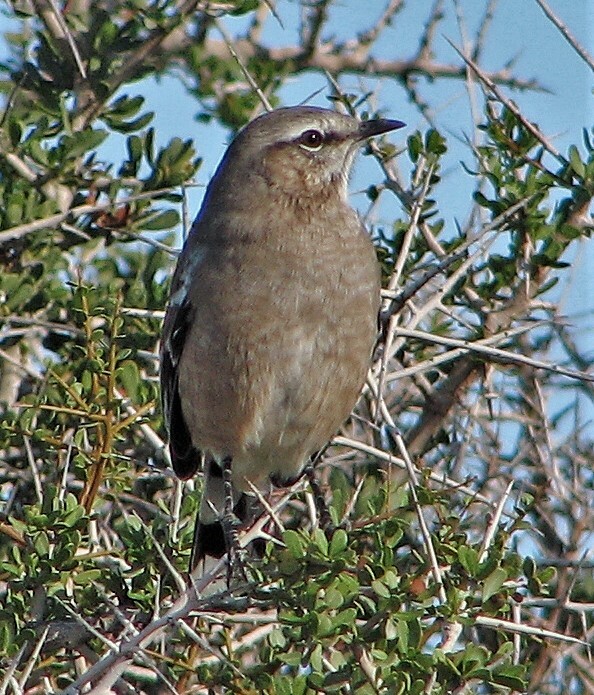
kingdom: Animalia
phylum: Chordata
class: Aves
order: Passeriformes
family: Mimidae
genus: Mimus
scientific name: Mimus patagonicus
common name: Patagonian mockingbird
